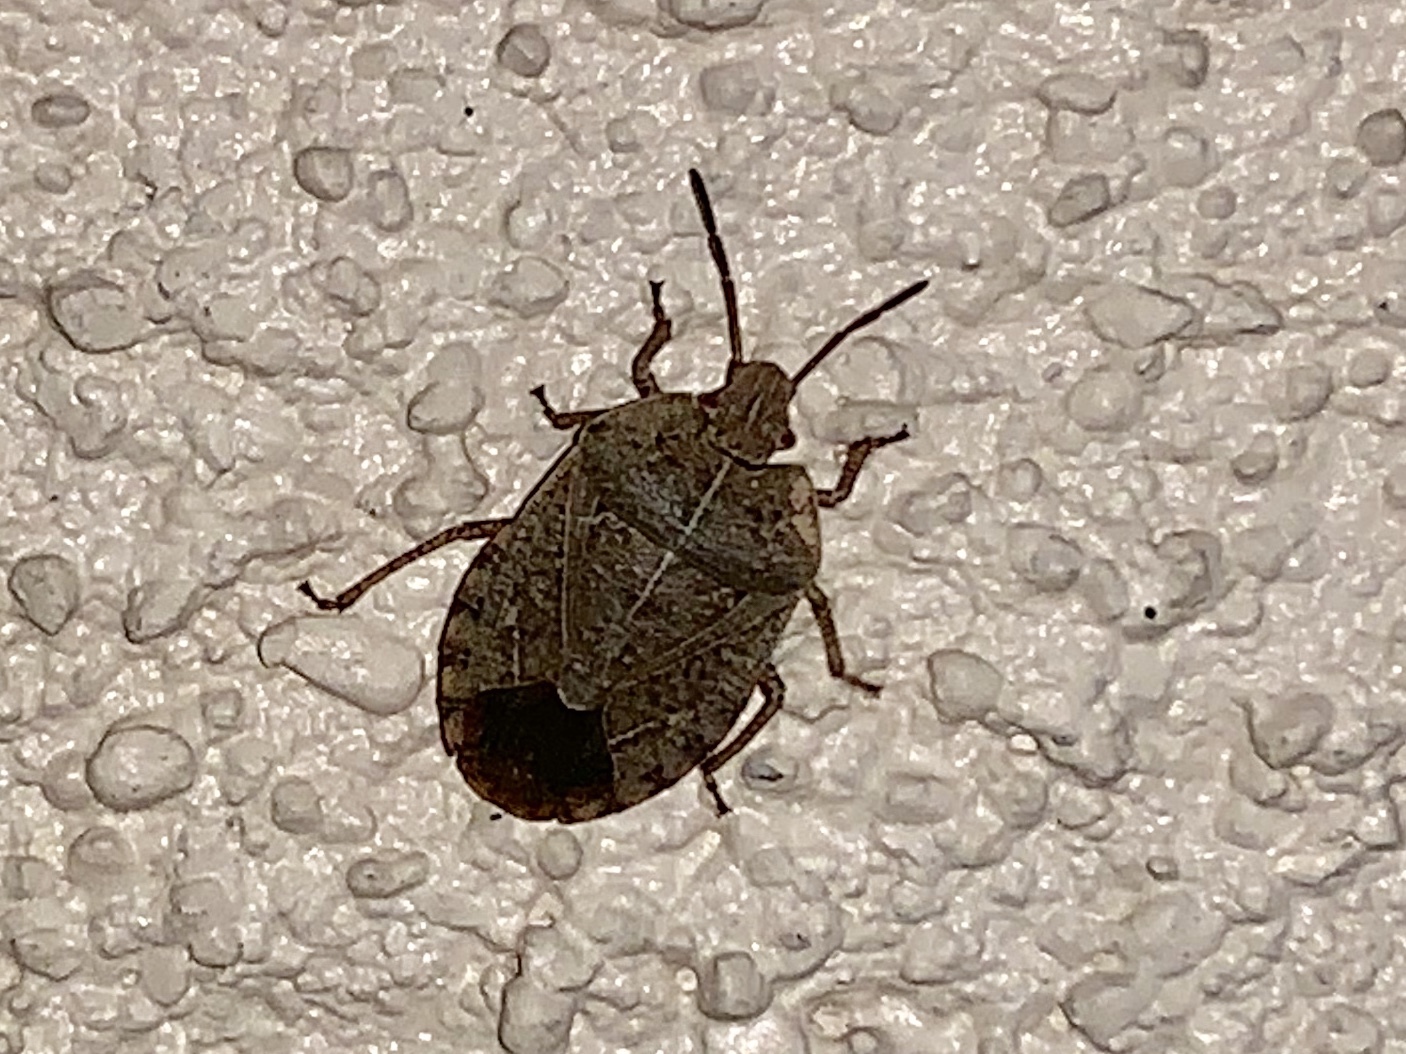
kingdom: Animalia
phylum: Arthropoda
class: Insecta
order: Hemiptera
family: Pentatomidae
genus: Menecles
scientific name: Menecles insertus
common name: Elf shoe stink bug
